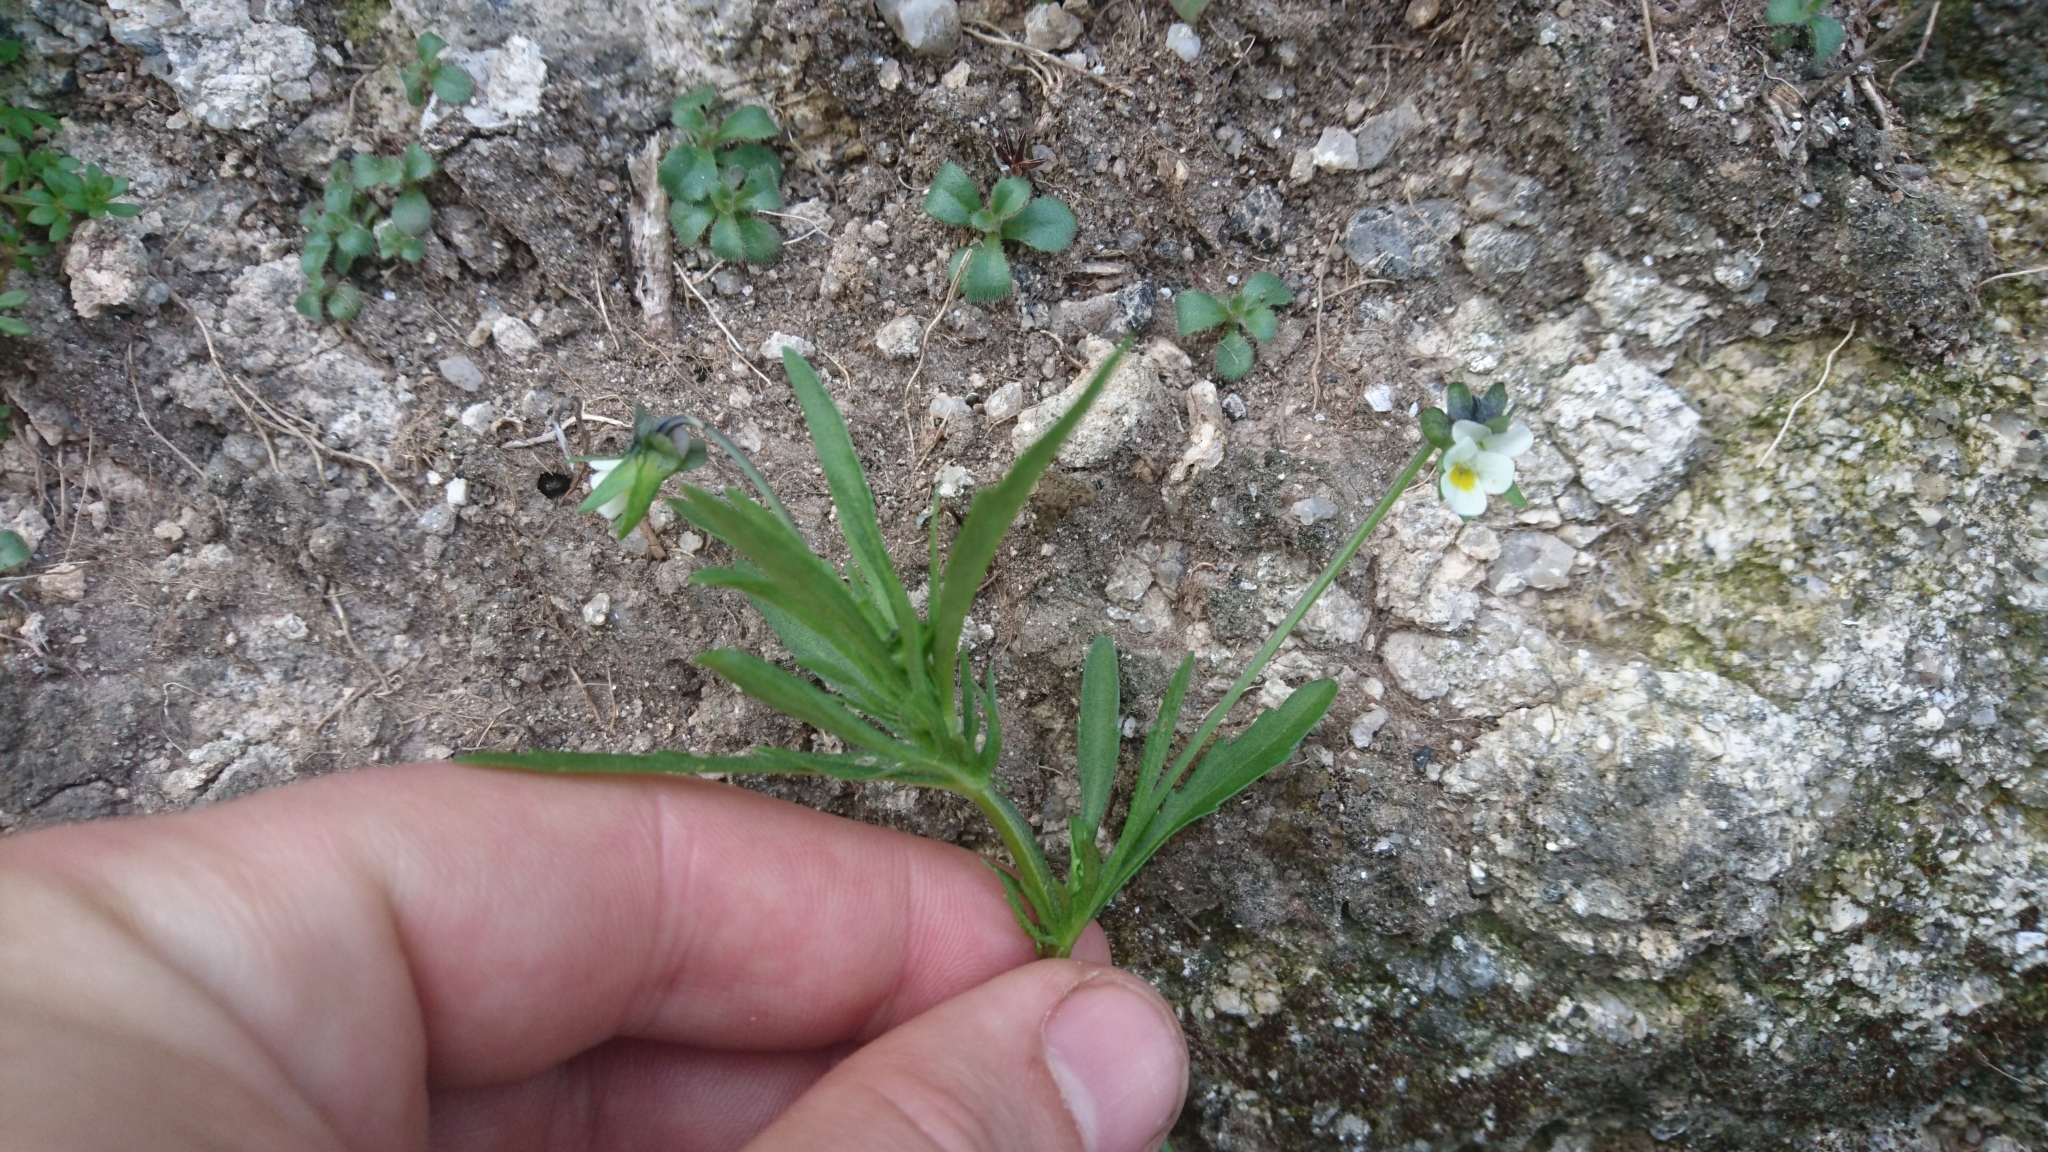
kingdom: Plantae
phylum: Tracheophyta
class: Magnoliopsida
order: Malpighiales
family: Violaceae
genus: Viola
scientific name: Viola arvensis
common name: Field pansy
